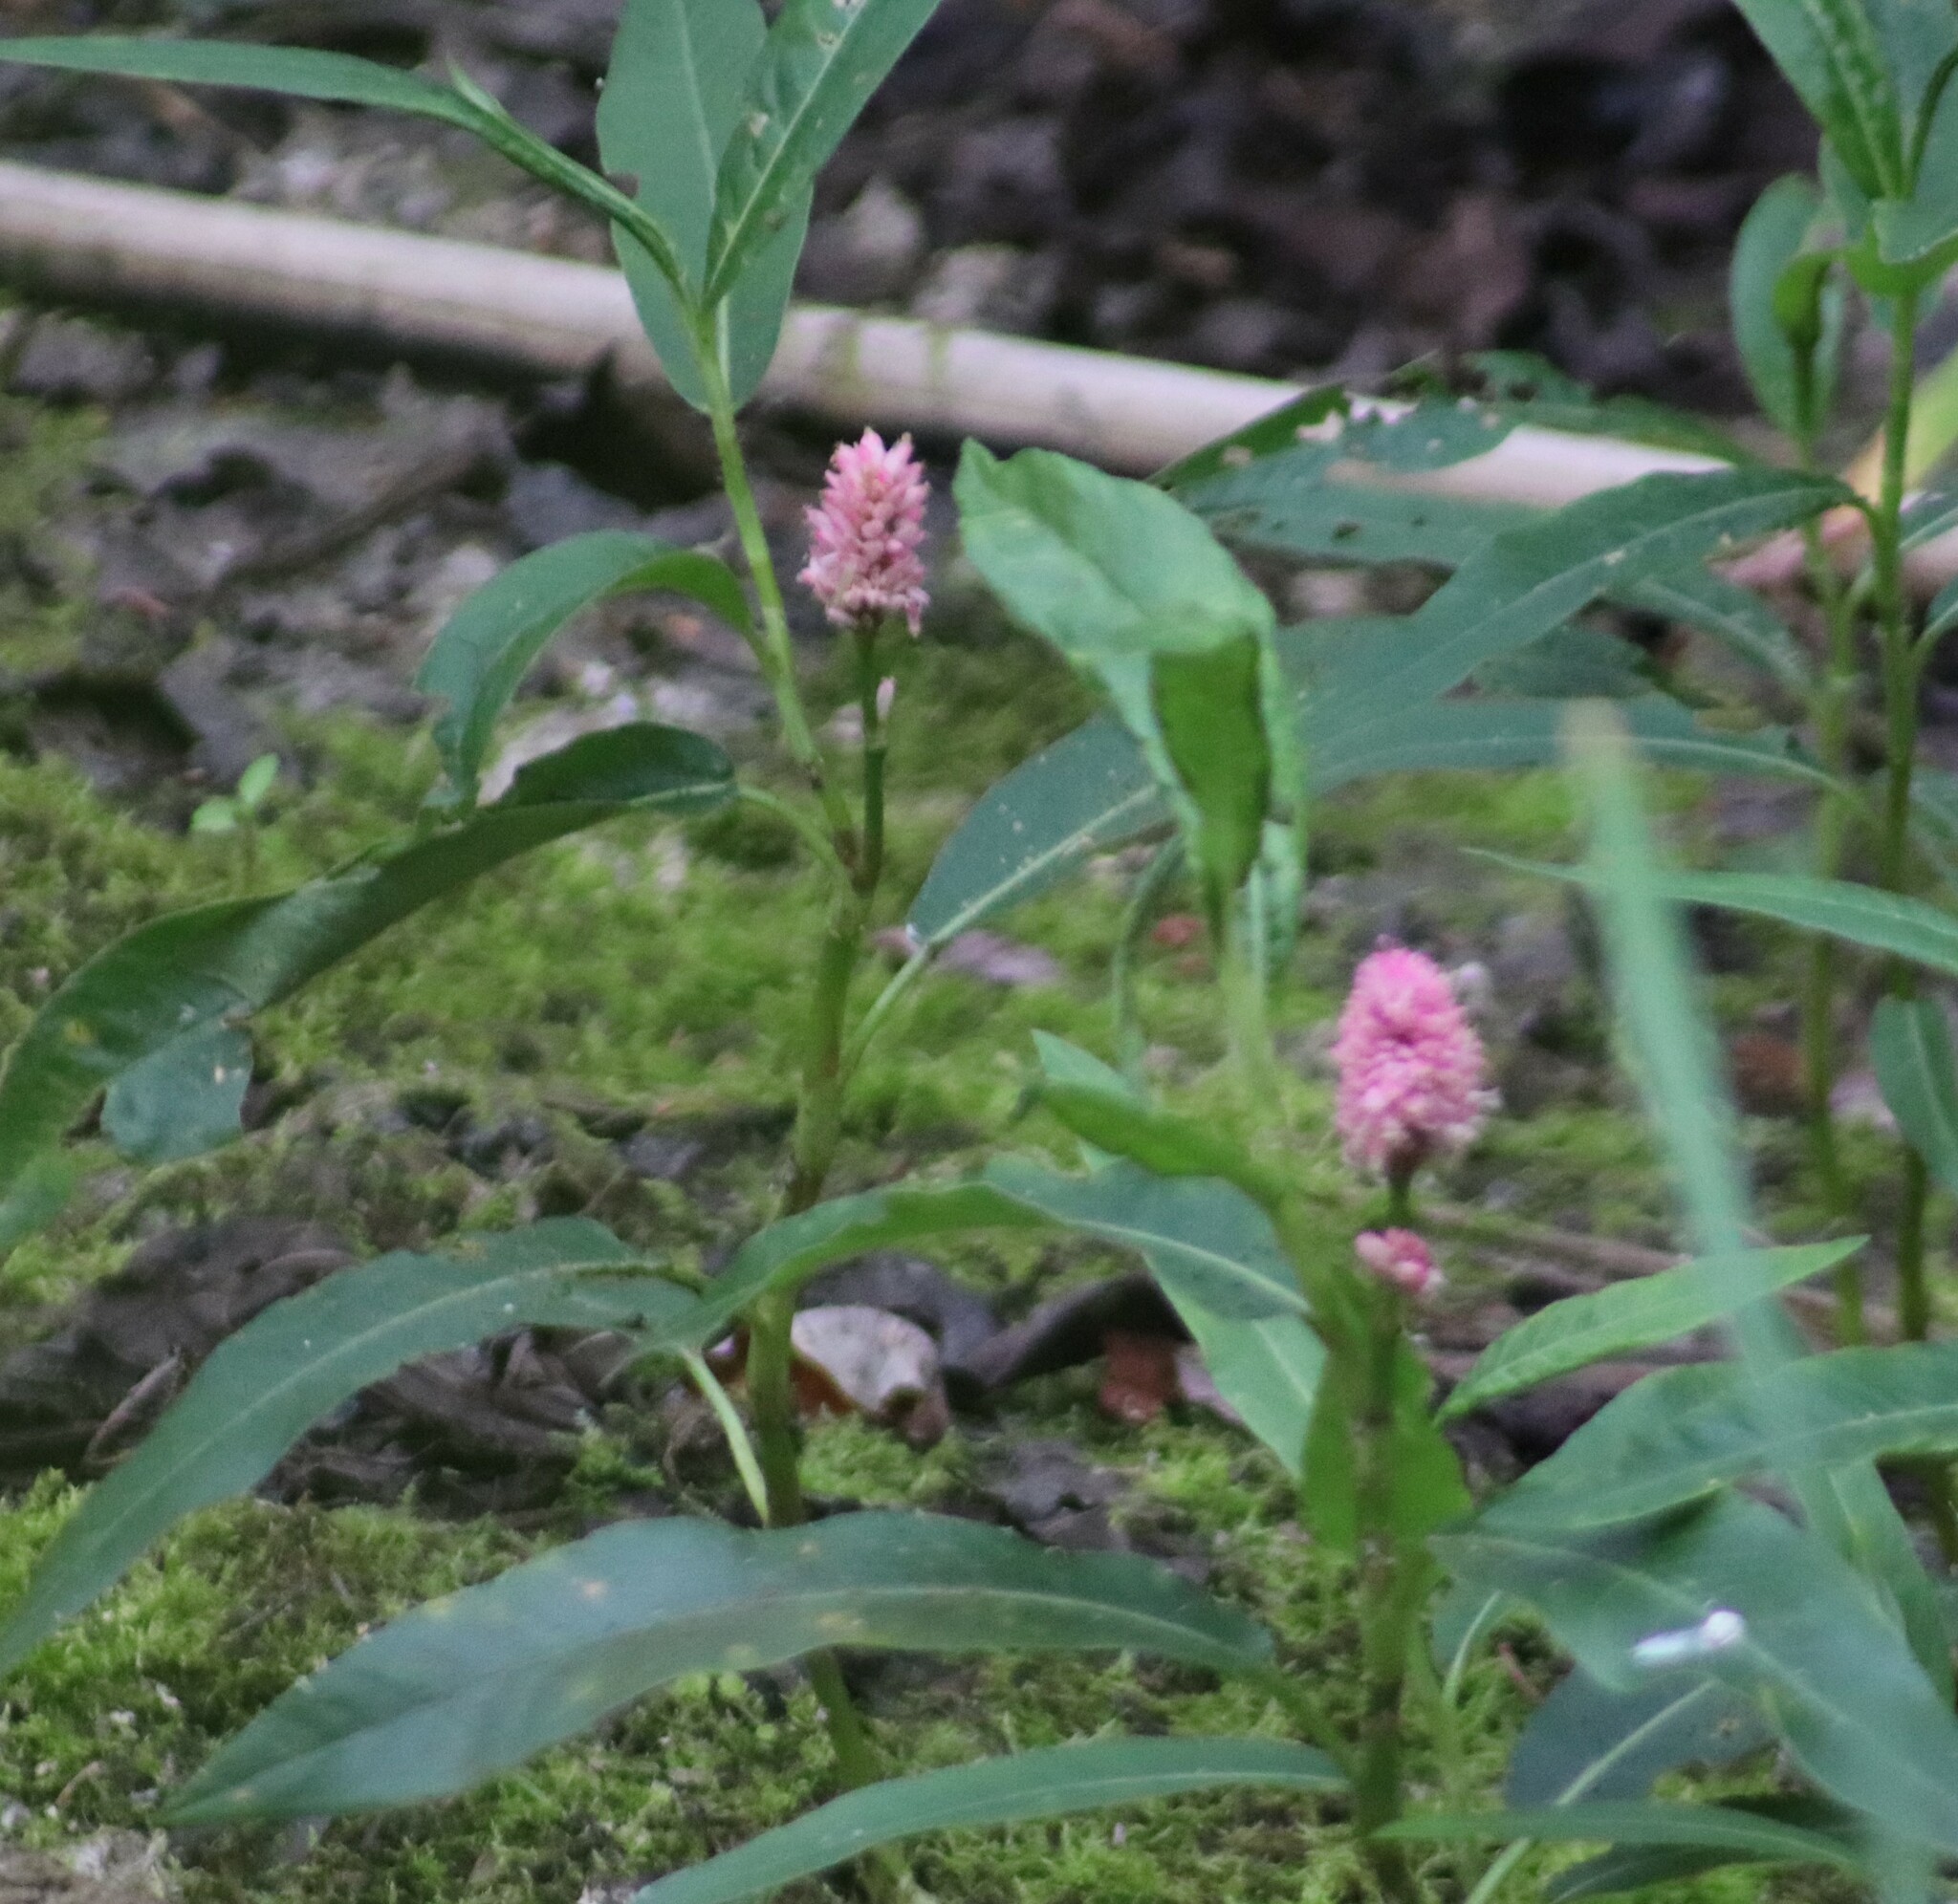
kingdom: Plantae
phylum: Tracheophyta
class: Magnoliopsida
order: Caryophyllales
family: Polygonaceae
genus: Persicaria
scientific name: Persicaria amphibia
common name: Amphibious bistort
